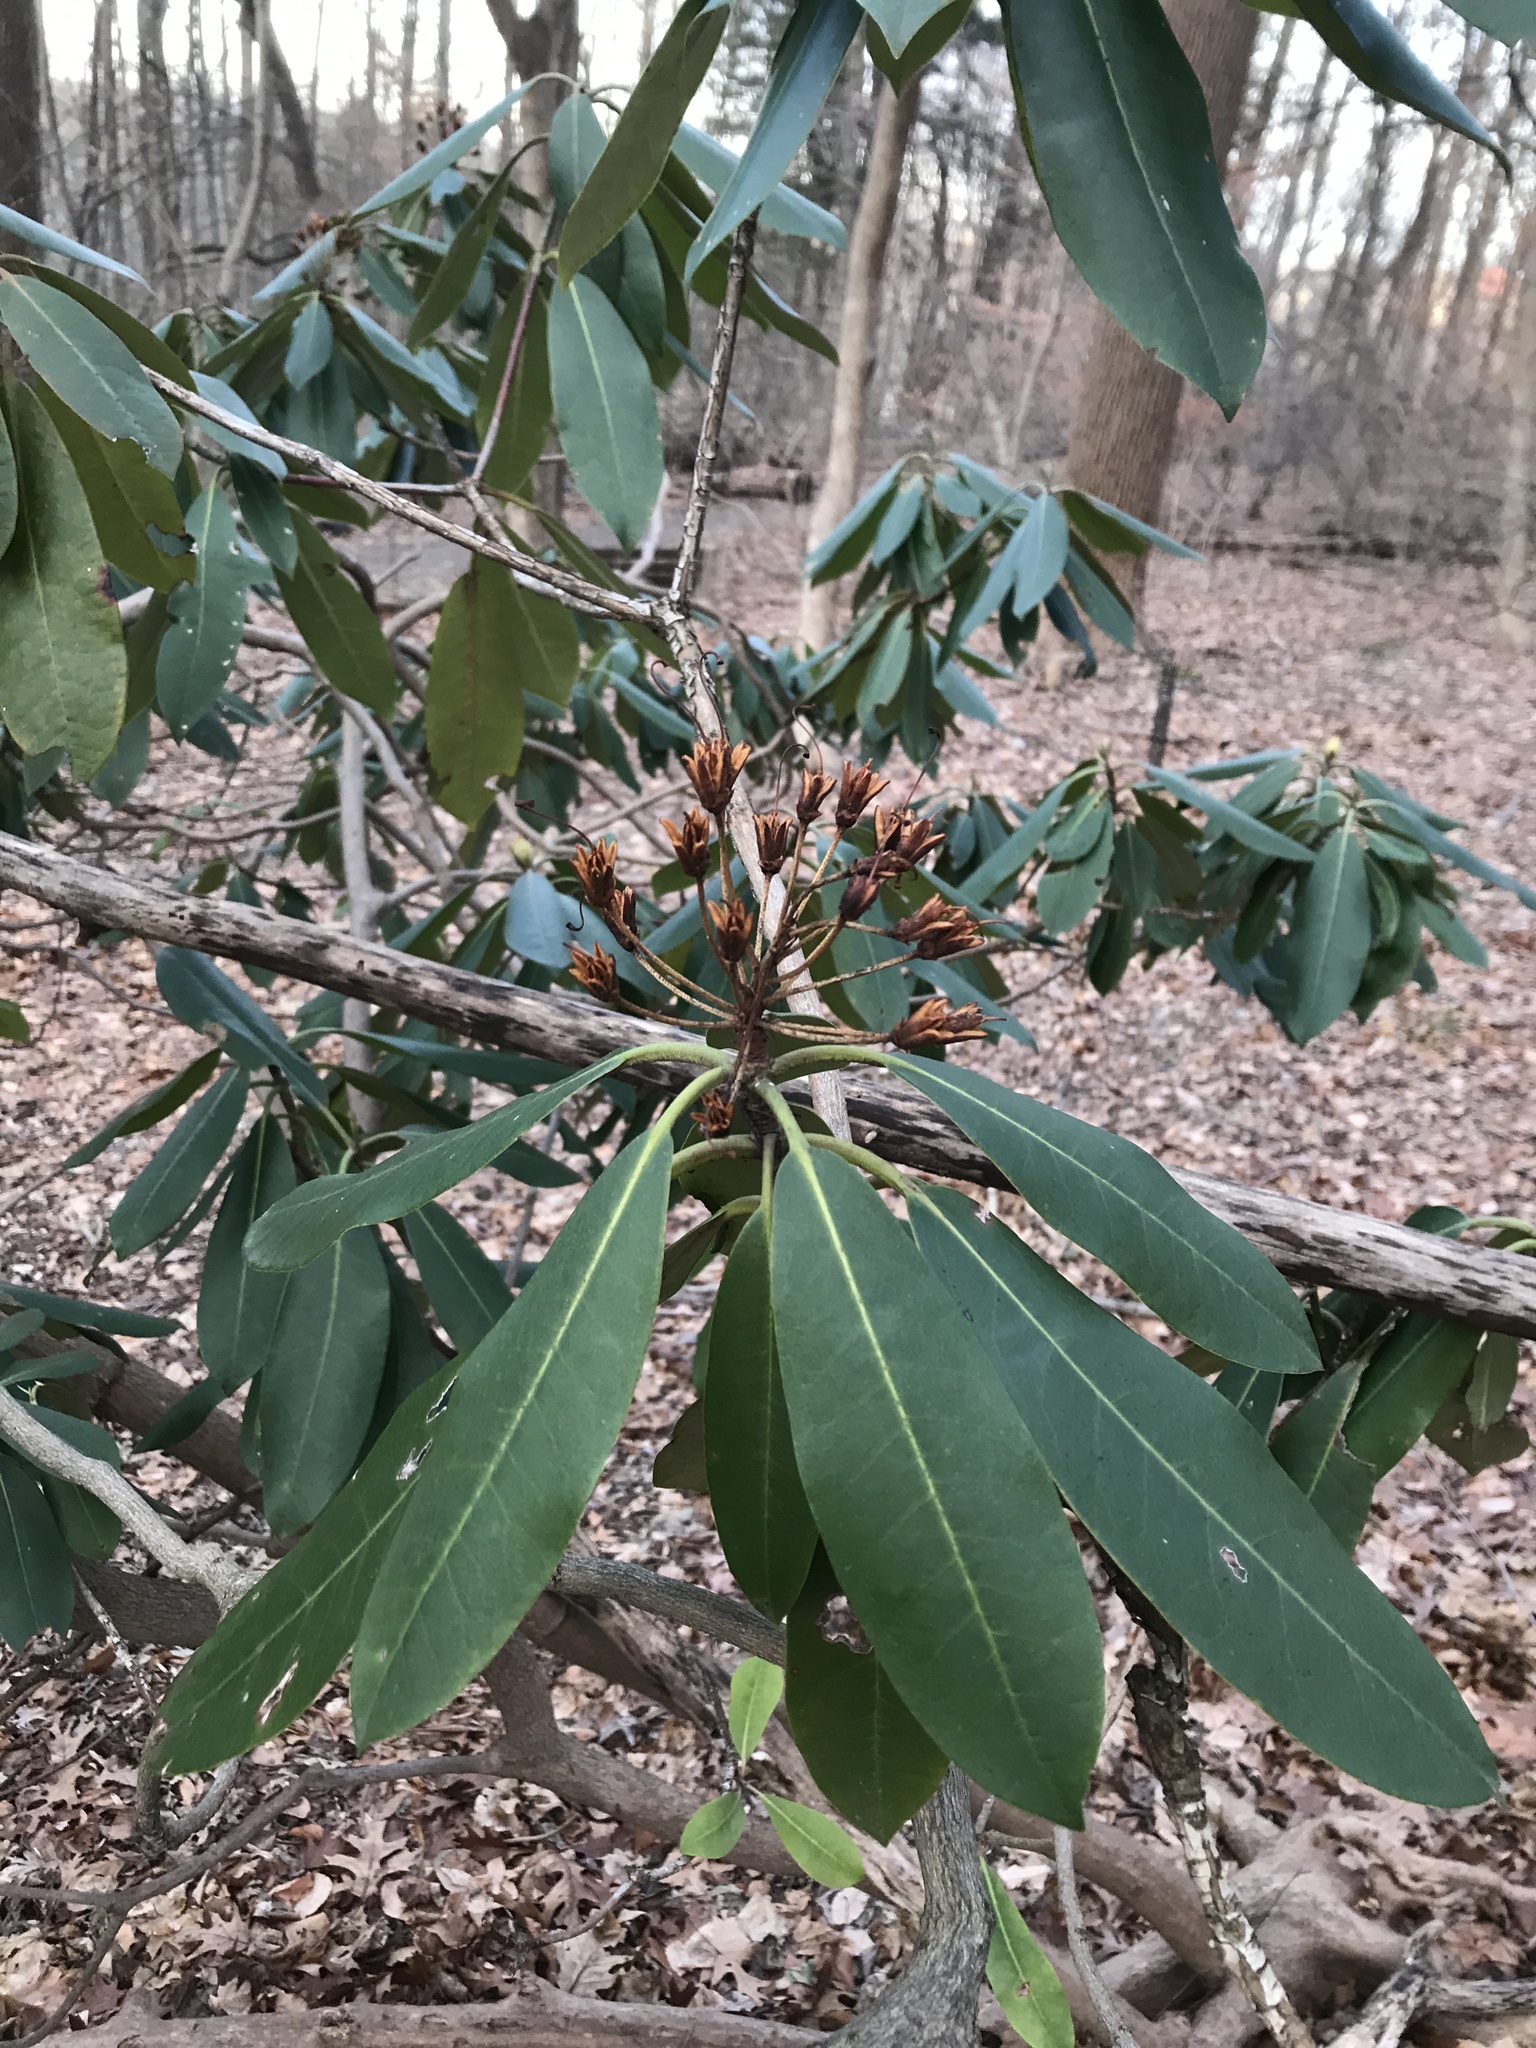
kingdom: Plantae
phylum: Tracheophyta
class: Magnoliopsida
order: Ericales
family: Ericaceae
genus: Rhododendron
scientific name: Rhododendron maximum
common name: Great rhododendron
